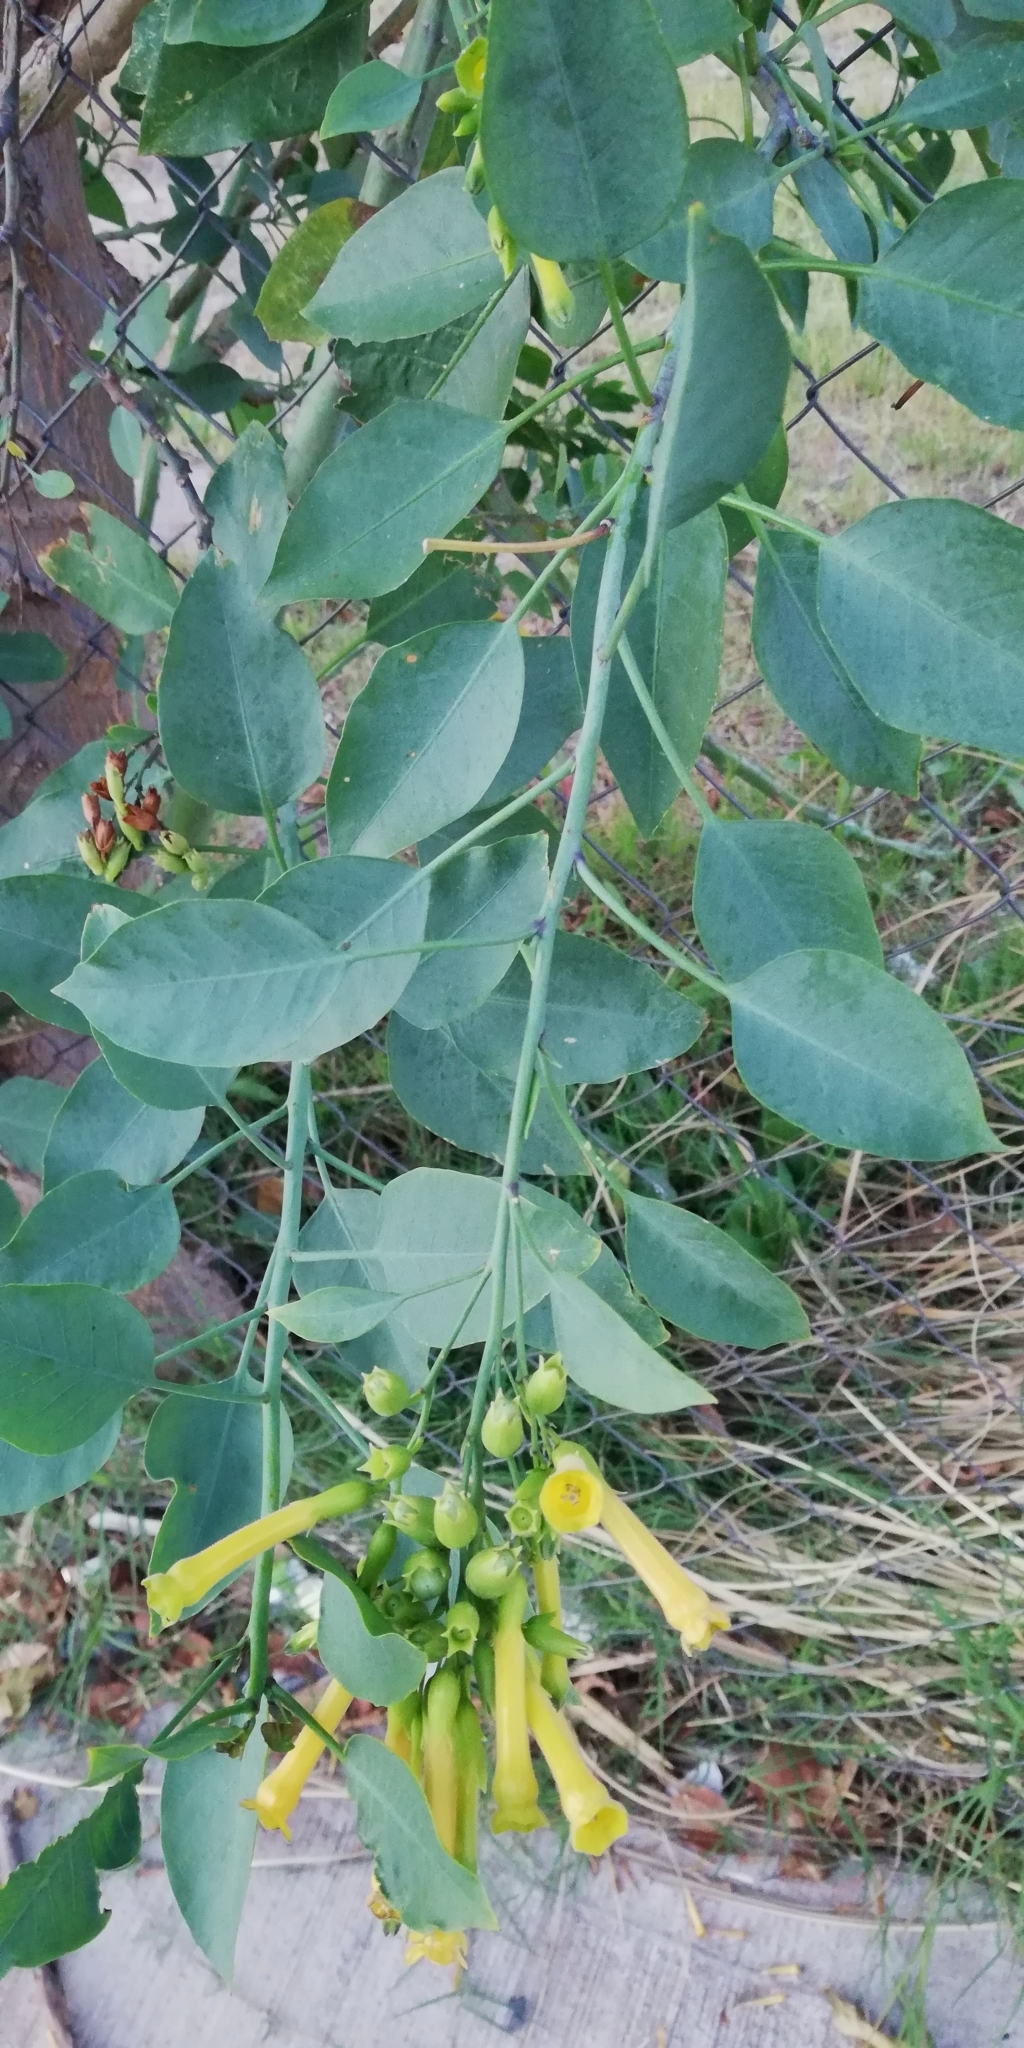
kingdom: Plantae
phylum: Tracheophyta
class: Magnoliopsida
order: Solanales
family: Solanaceae
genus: Nicotiana
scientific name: Nicotiana glauca
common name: Tree tobacco
